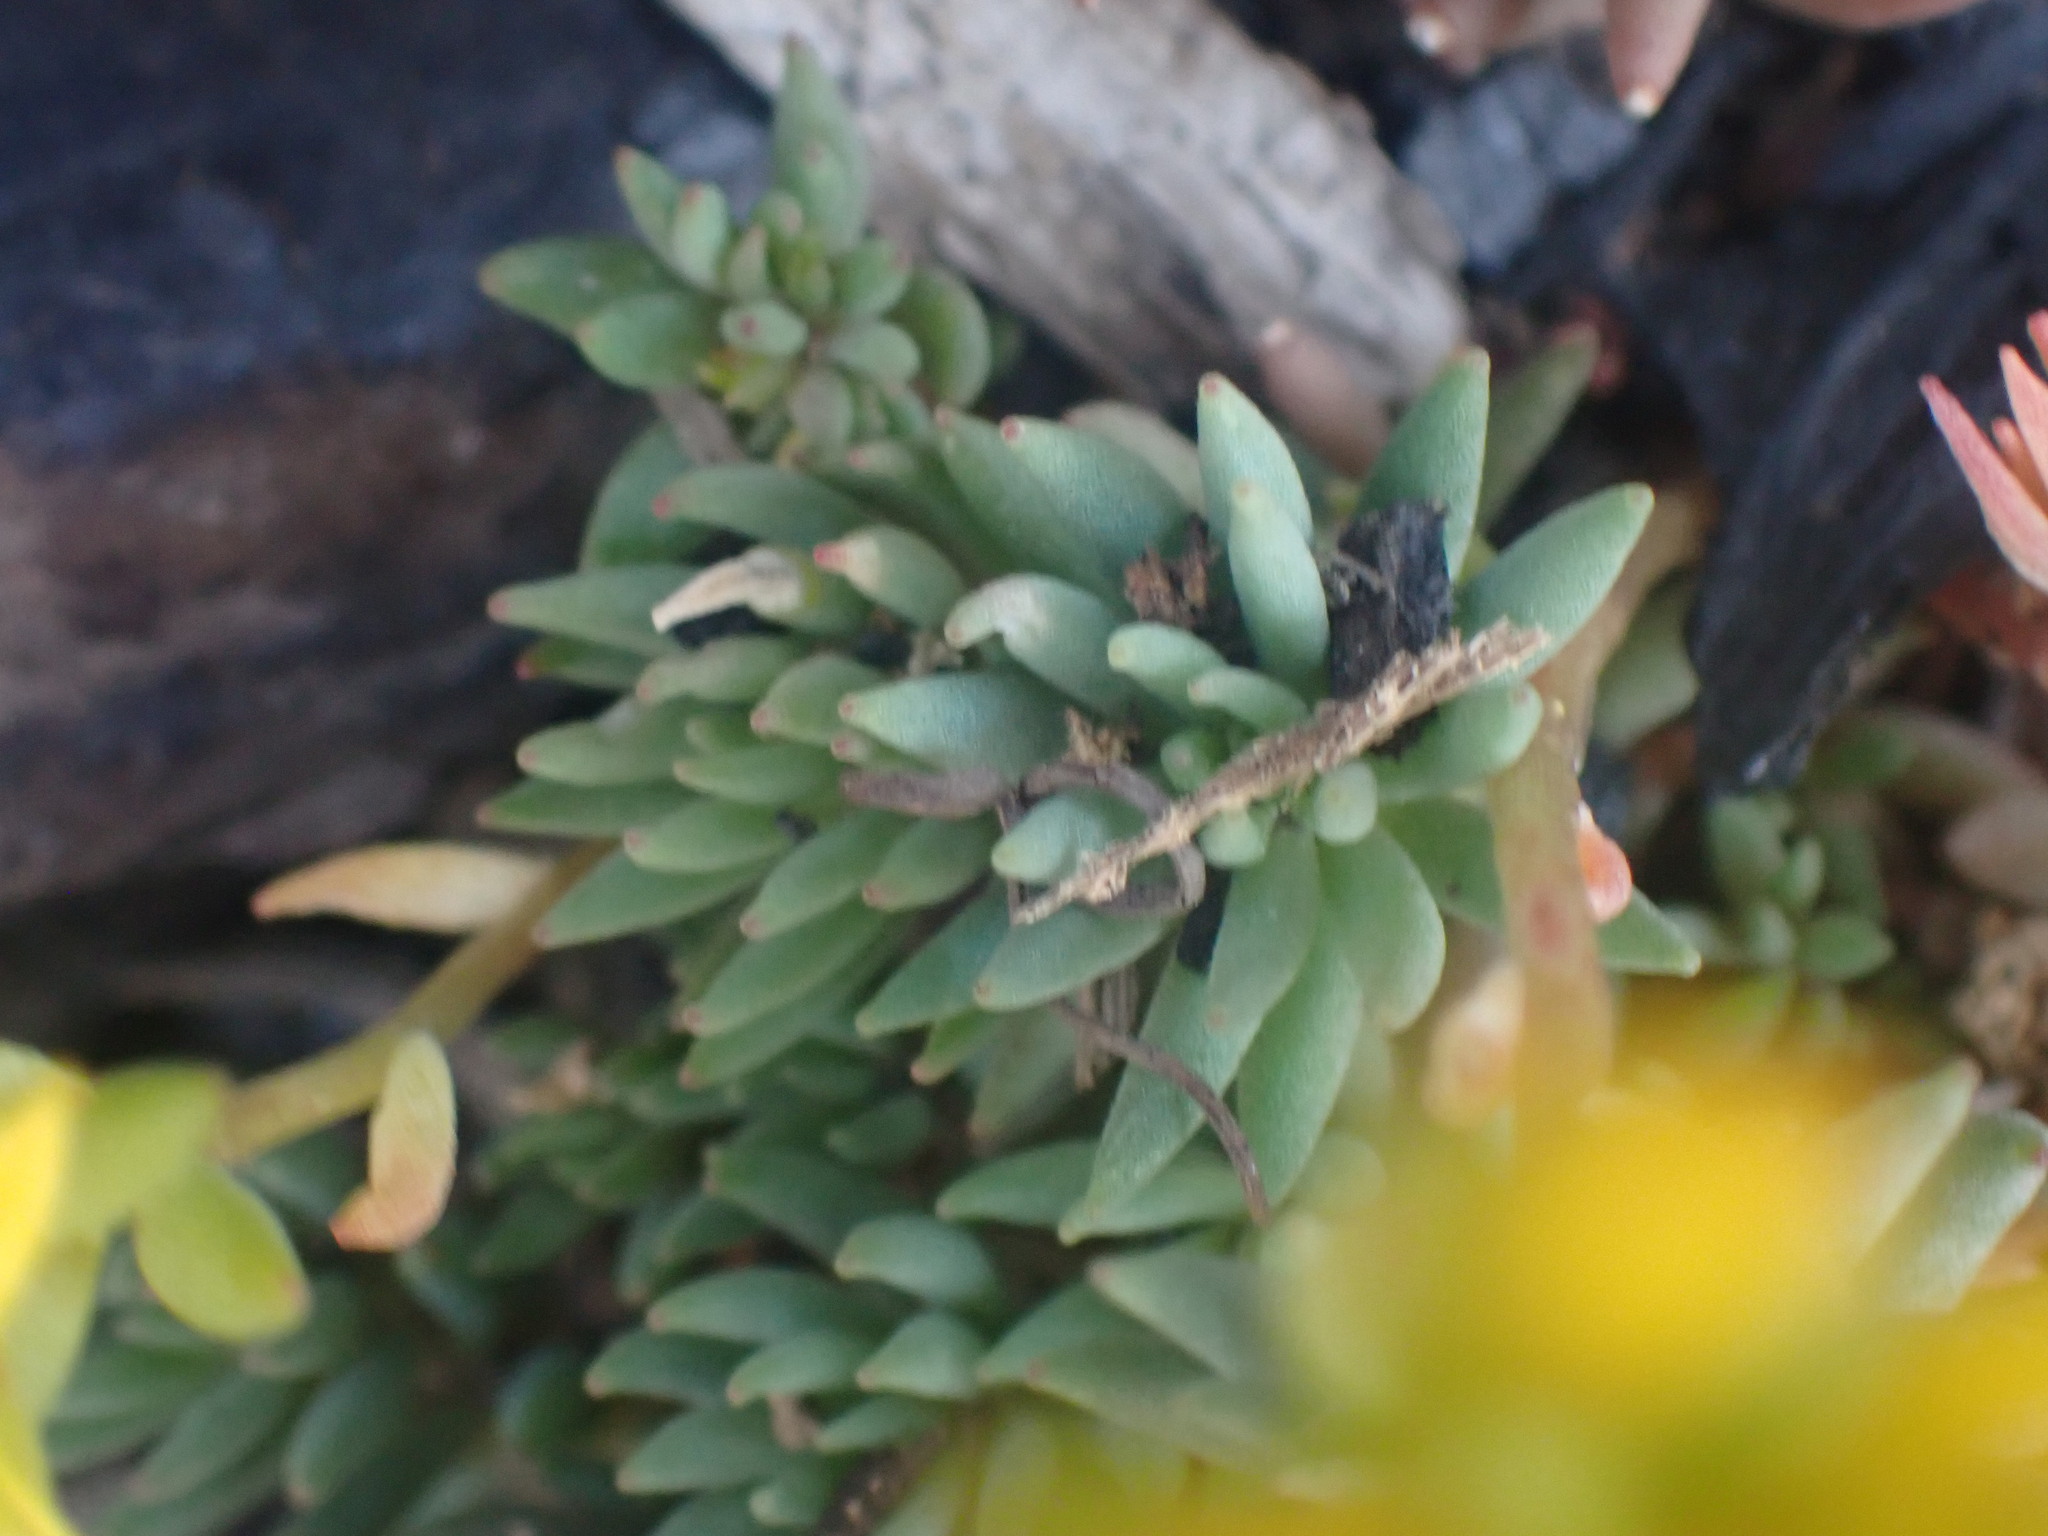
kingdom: Plantae
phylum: Tracheophyta
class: Magnoliopsida
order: Saxifragales
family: Crassulaceae
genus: Sedum
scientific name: Sedum lanceolatum
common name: Common stonecrop
